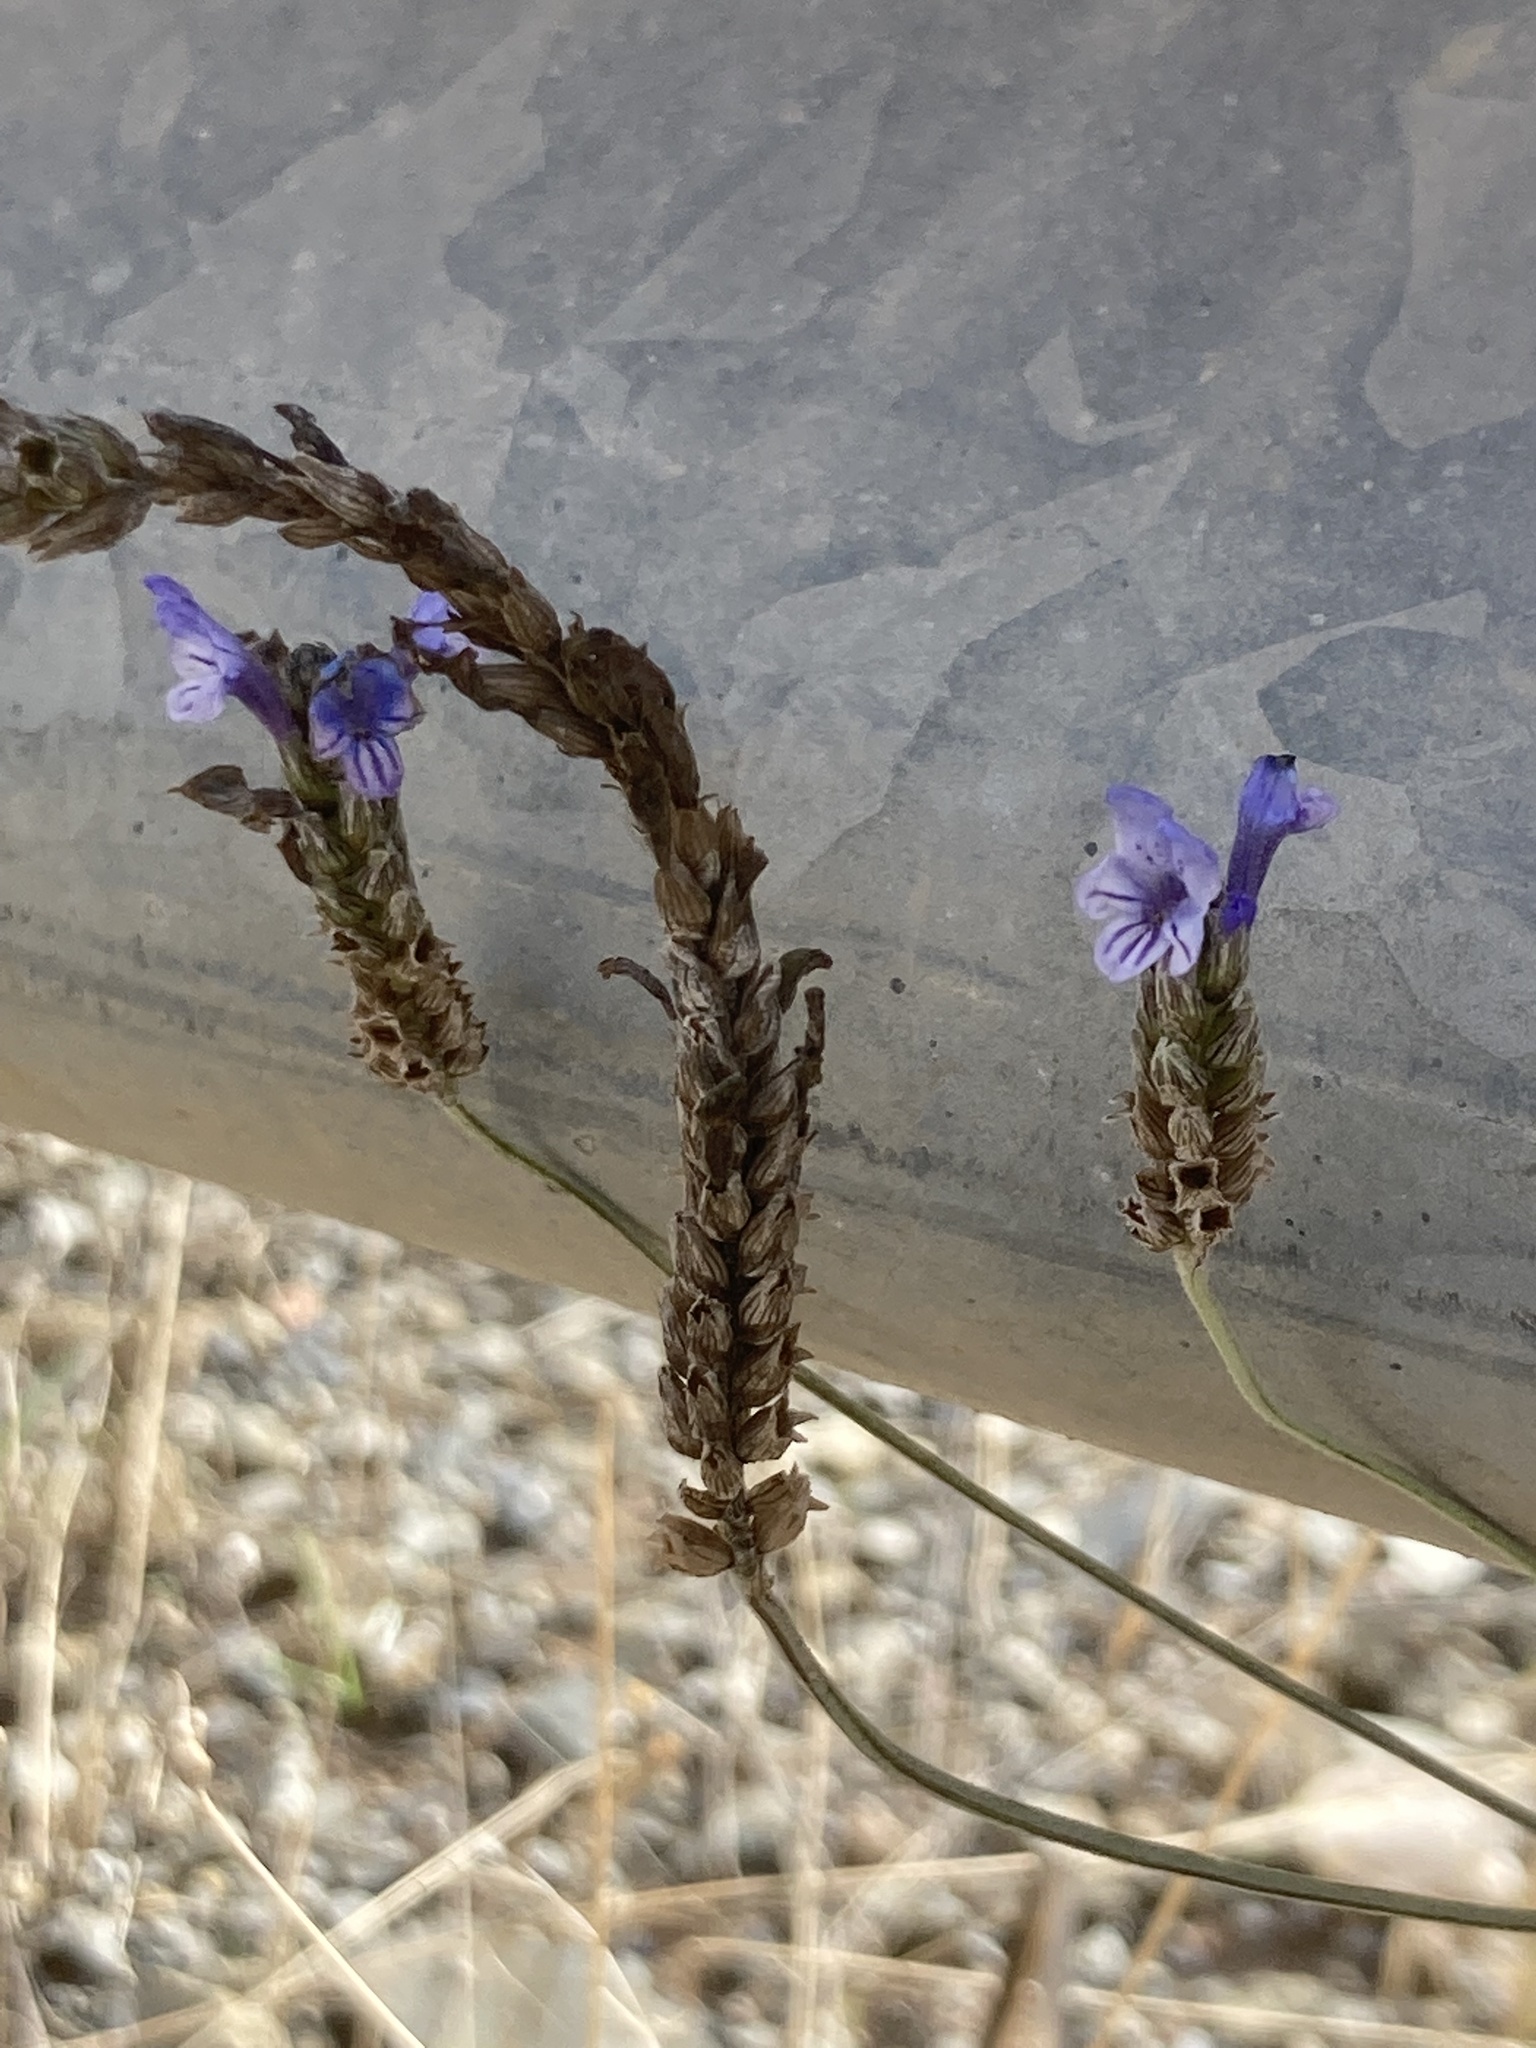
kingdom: Plantae
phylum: Tracheophyta
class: Magnoliopsida
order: Lamiales
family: Lamiaceae
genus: Lavandula
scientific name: Lavandula multifida
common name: Fern-leaf lavender
